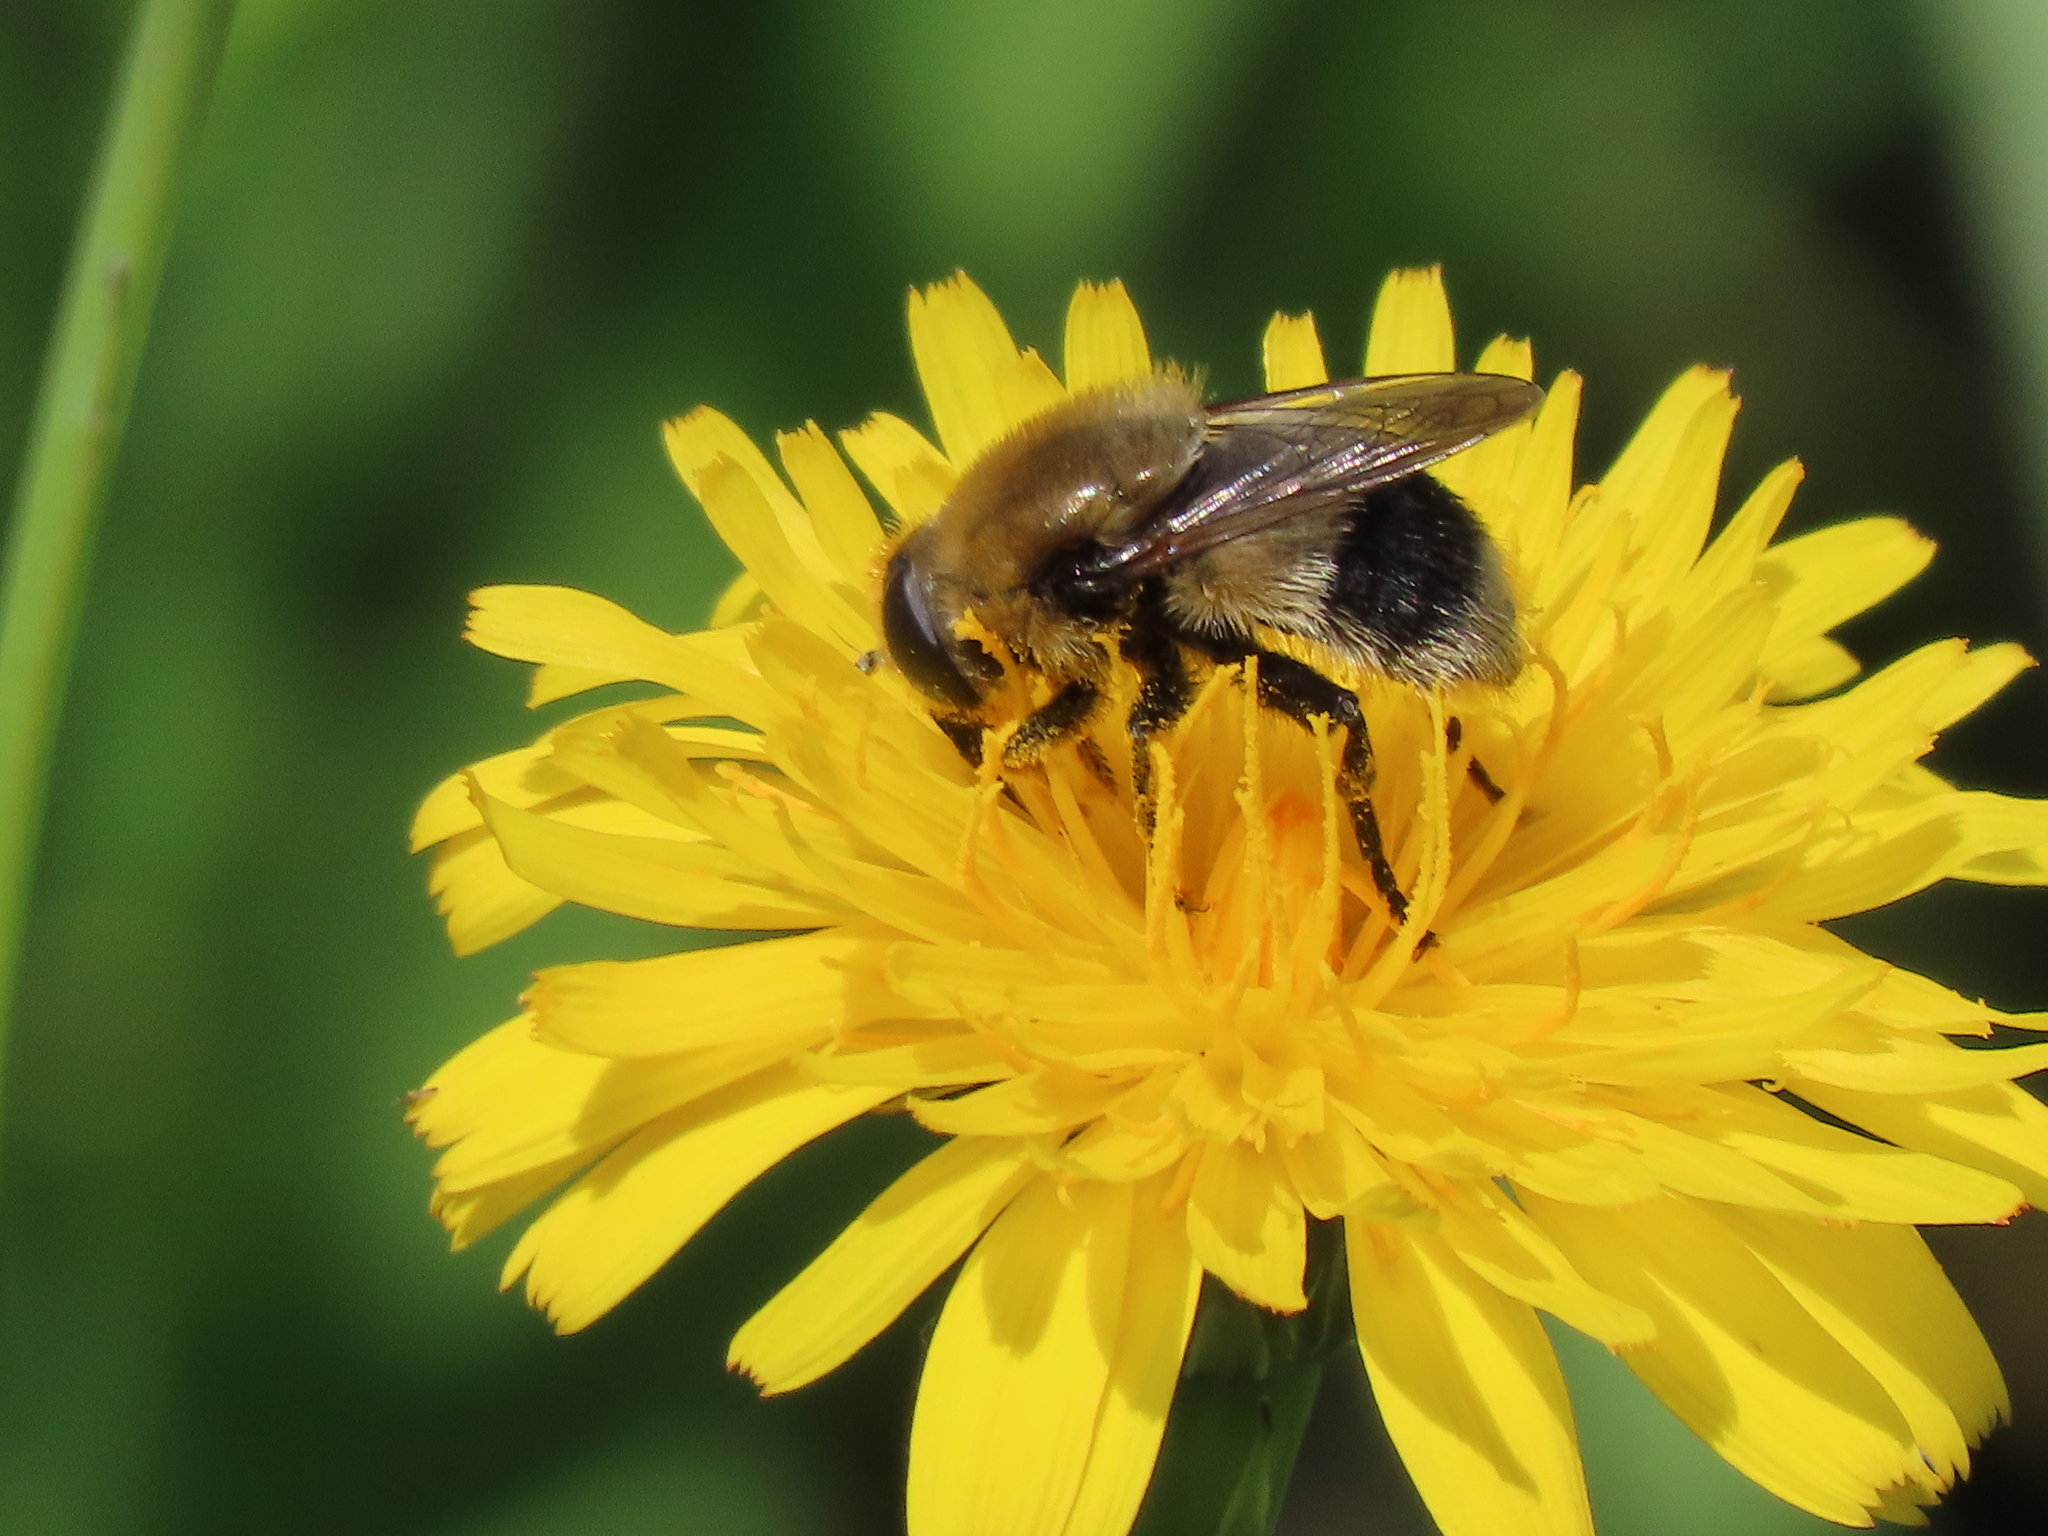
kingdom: Animalia
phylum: Arthropoda
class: Insecta
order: Diptera
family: Syrphidae
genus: Merodon
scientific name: Merodon equestris
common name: Greater bulb-fly
